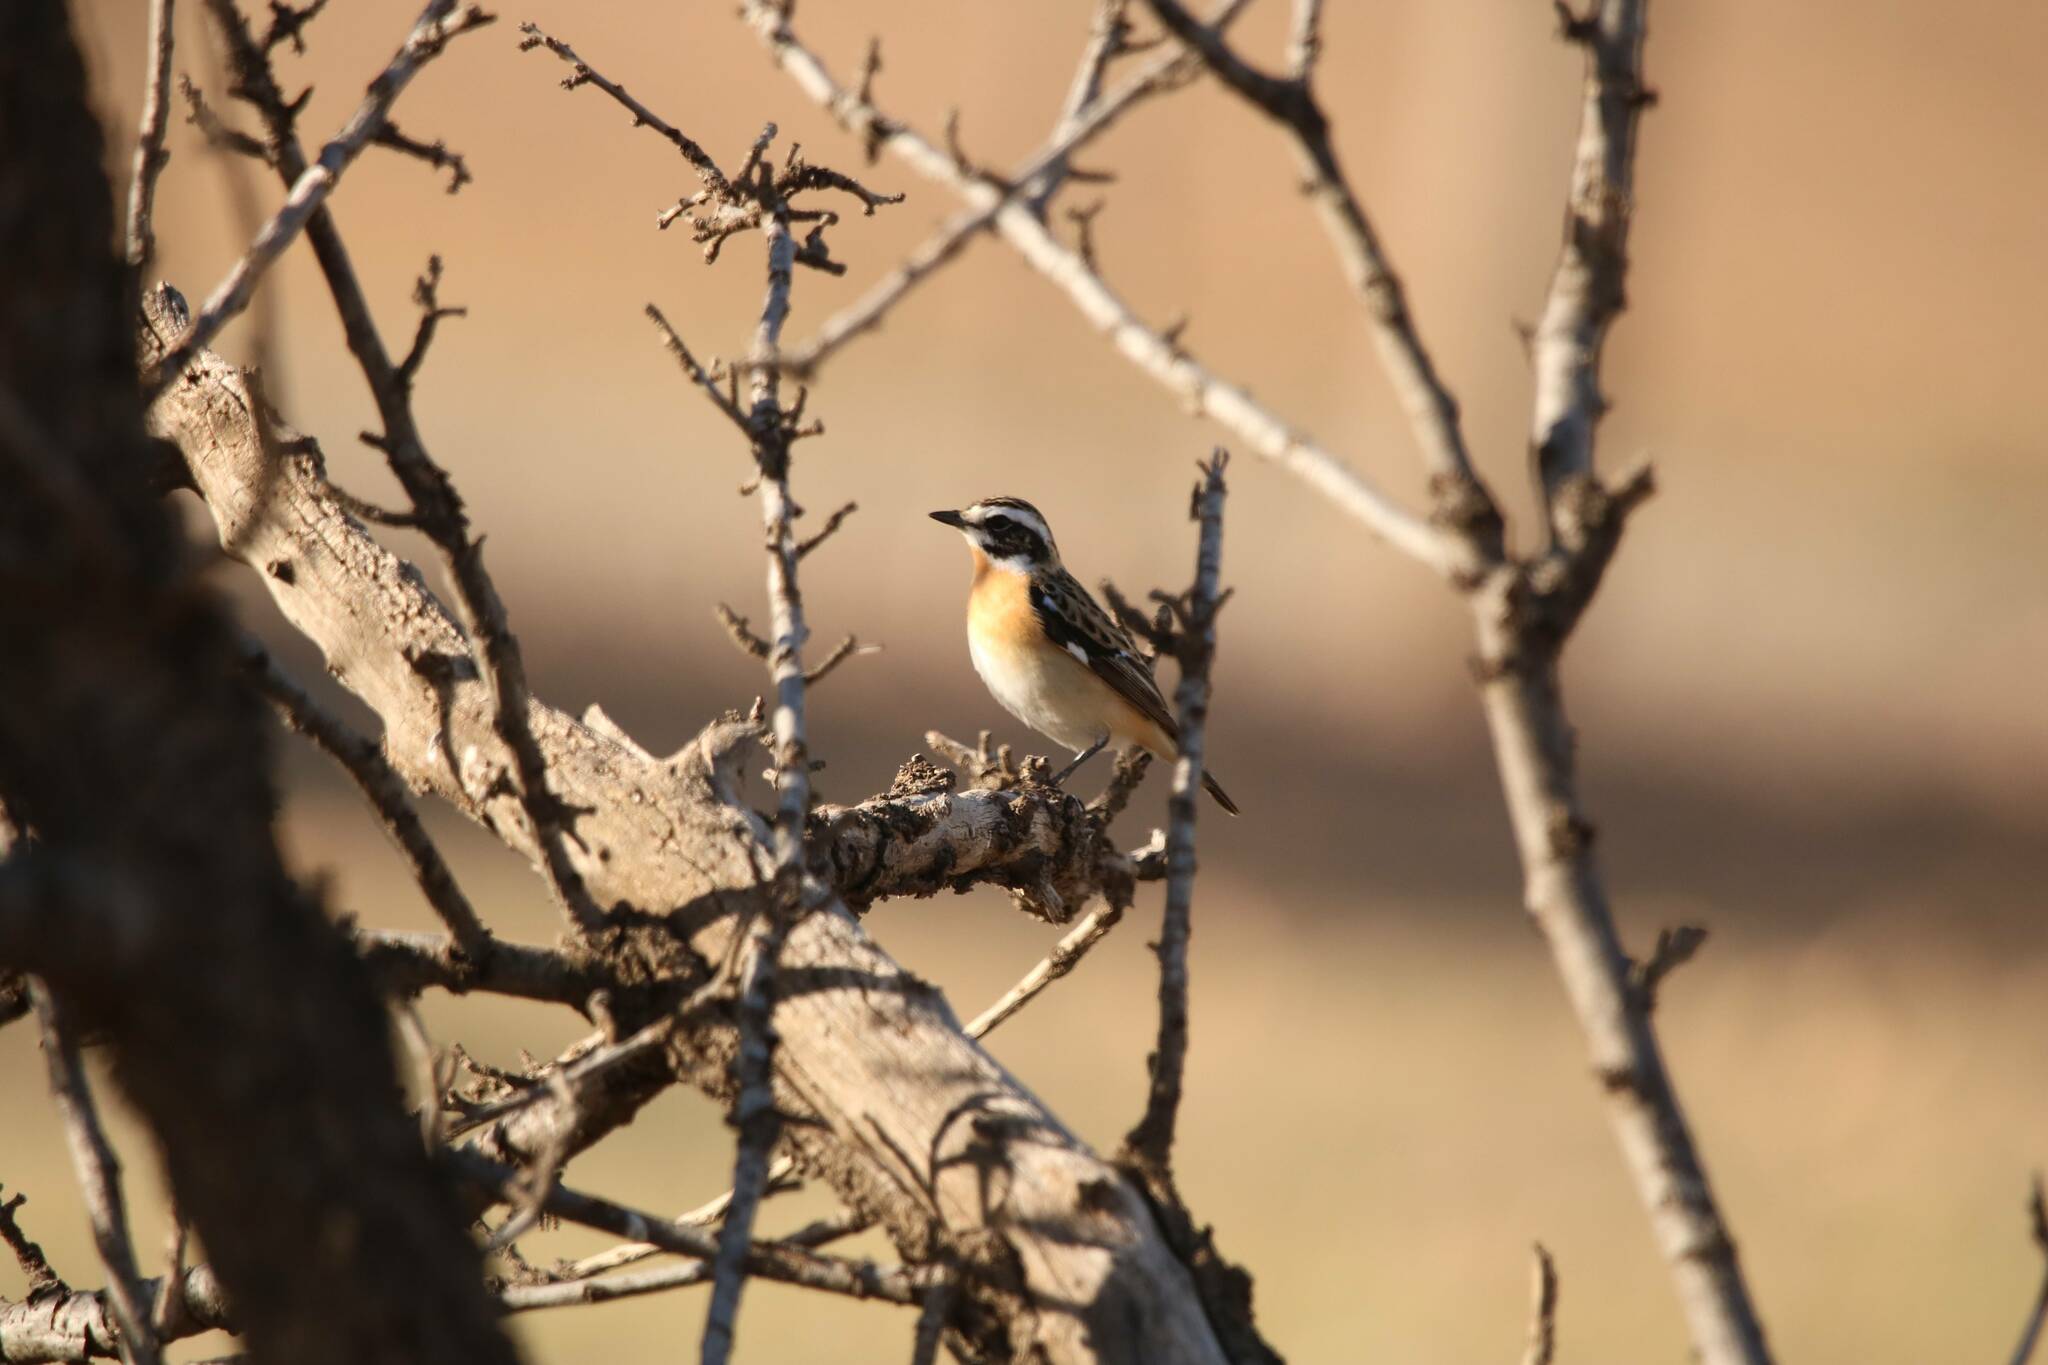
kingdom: Animalia
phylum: Chordata
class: Aves
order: Passeriformes
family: Muscicapidae
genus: Saxicola
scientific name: Saxicola rubetra
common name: Whinchat
